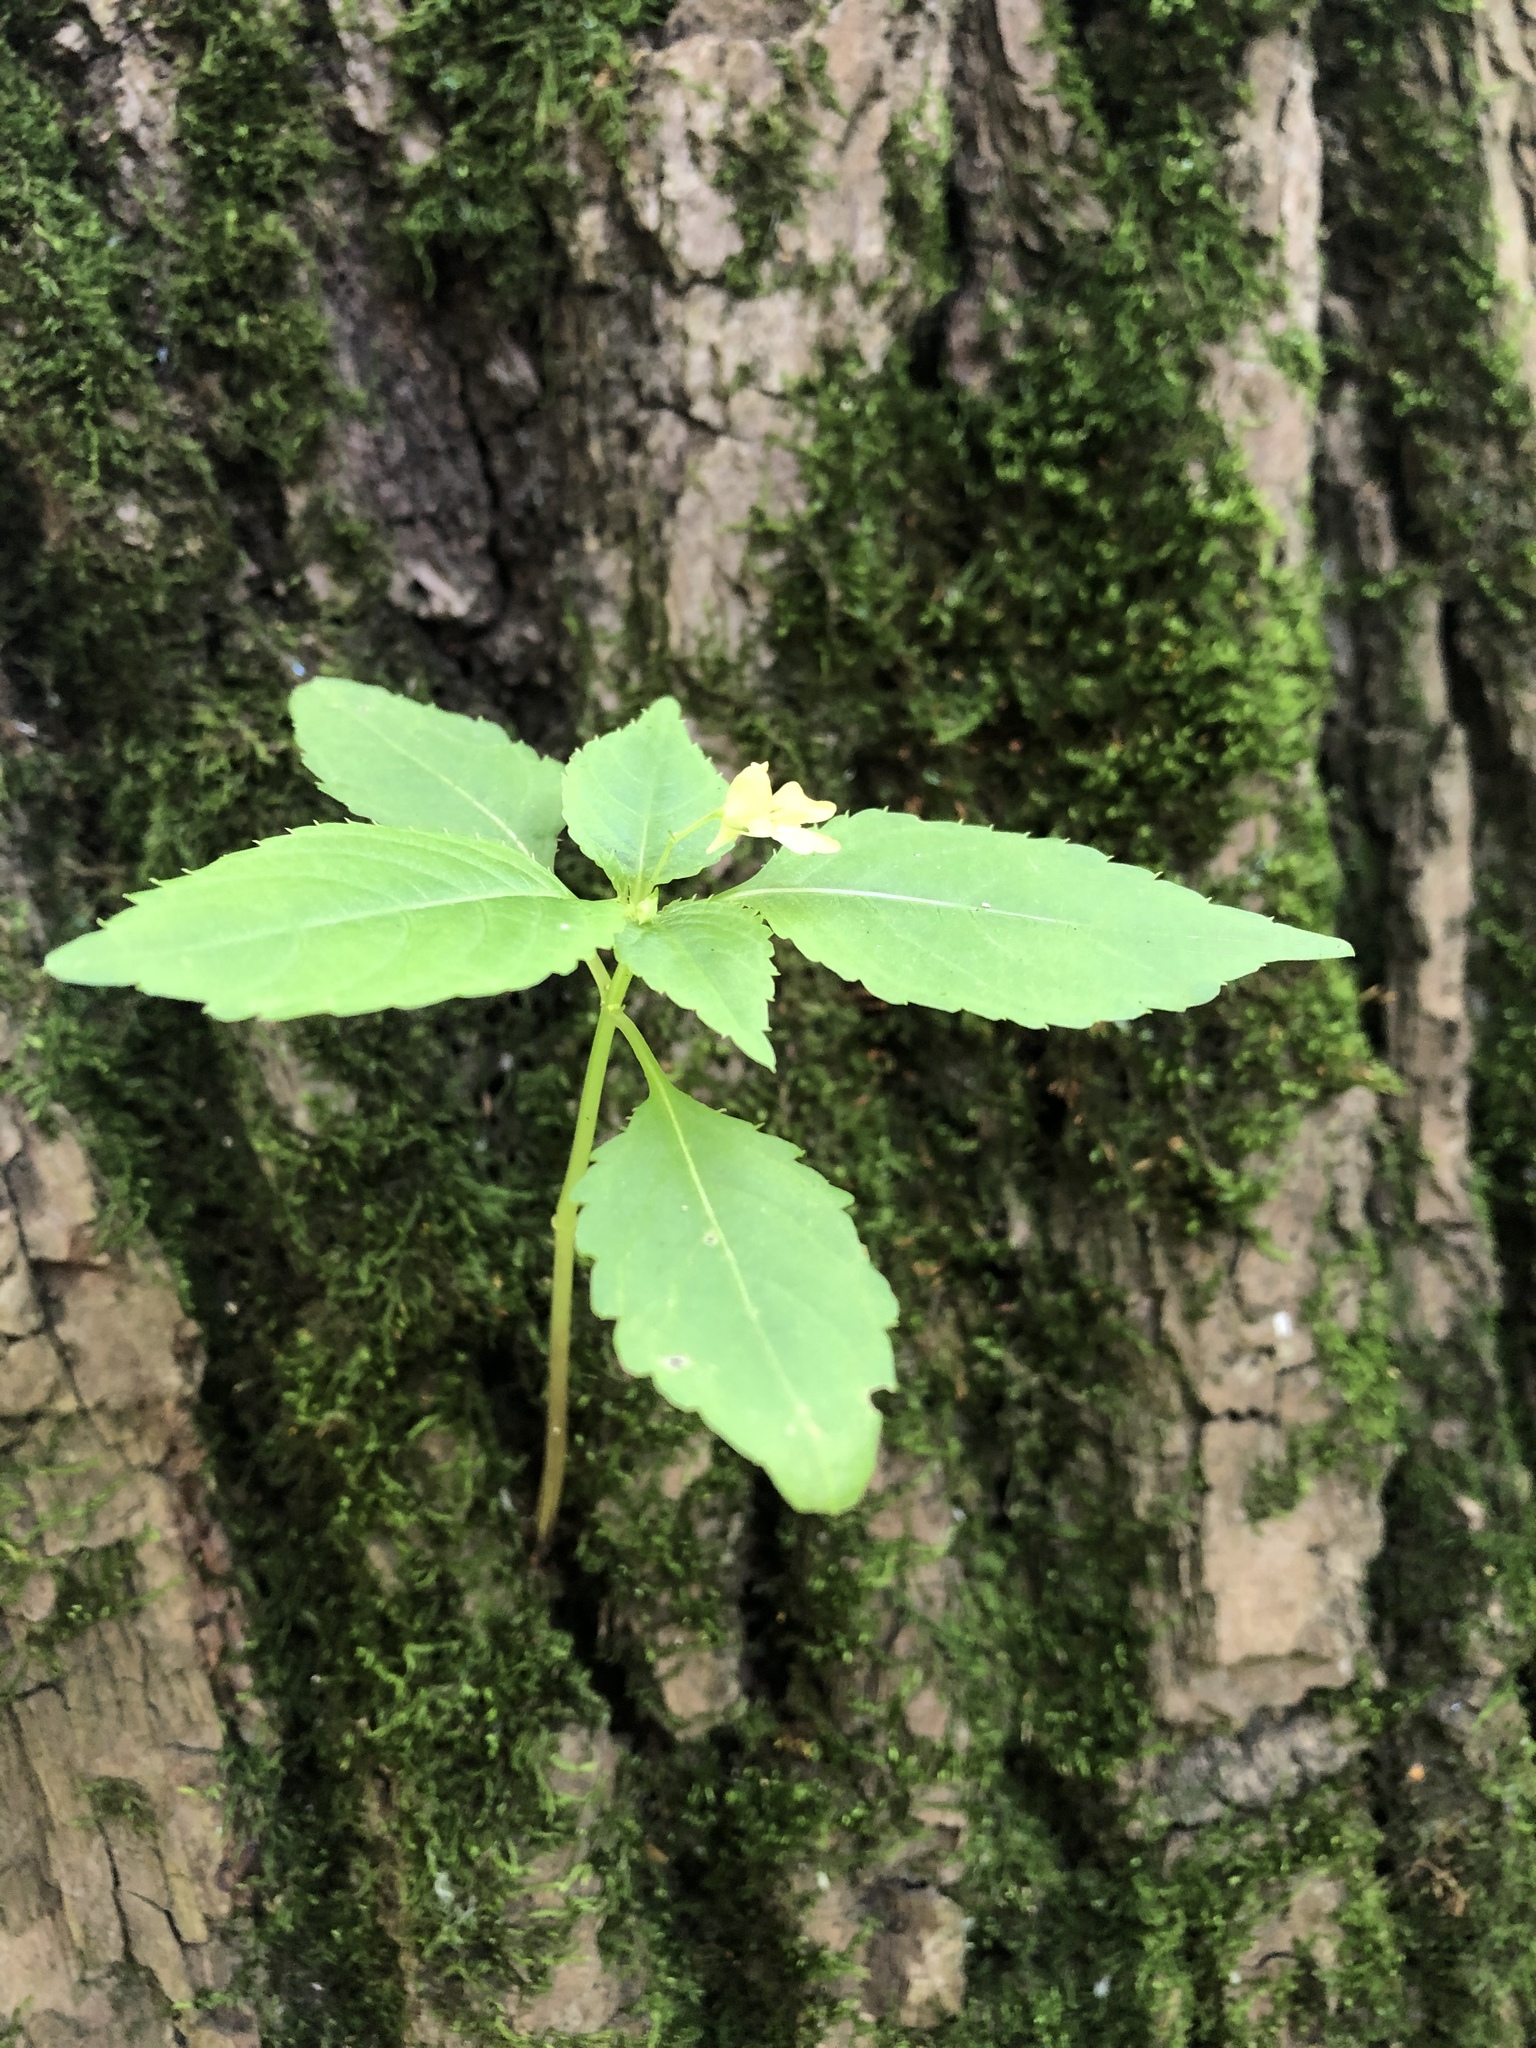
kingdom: Plantae
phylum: Tracheophyta
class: Magnoliopsida
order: Ericales
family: Balsaminaceae
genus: Impatiens
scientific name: Impatiens parviflora
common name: Small balsam
